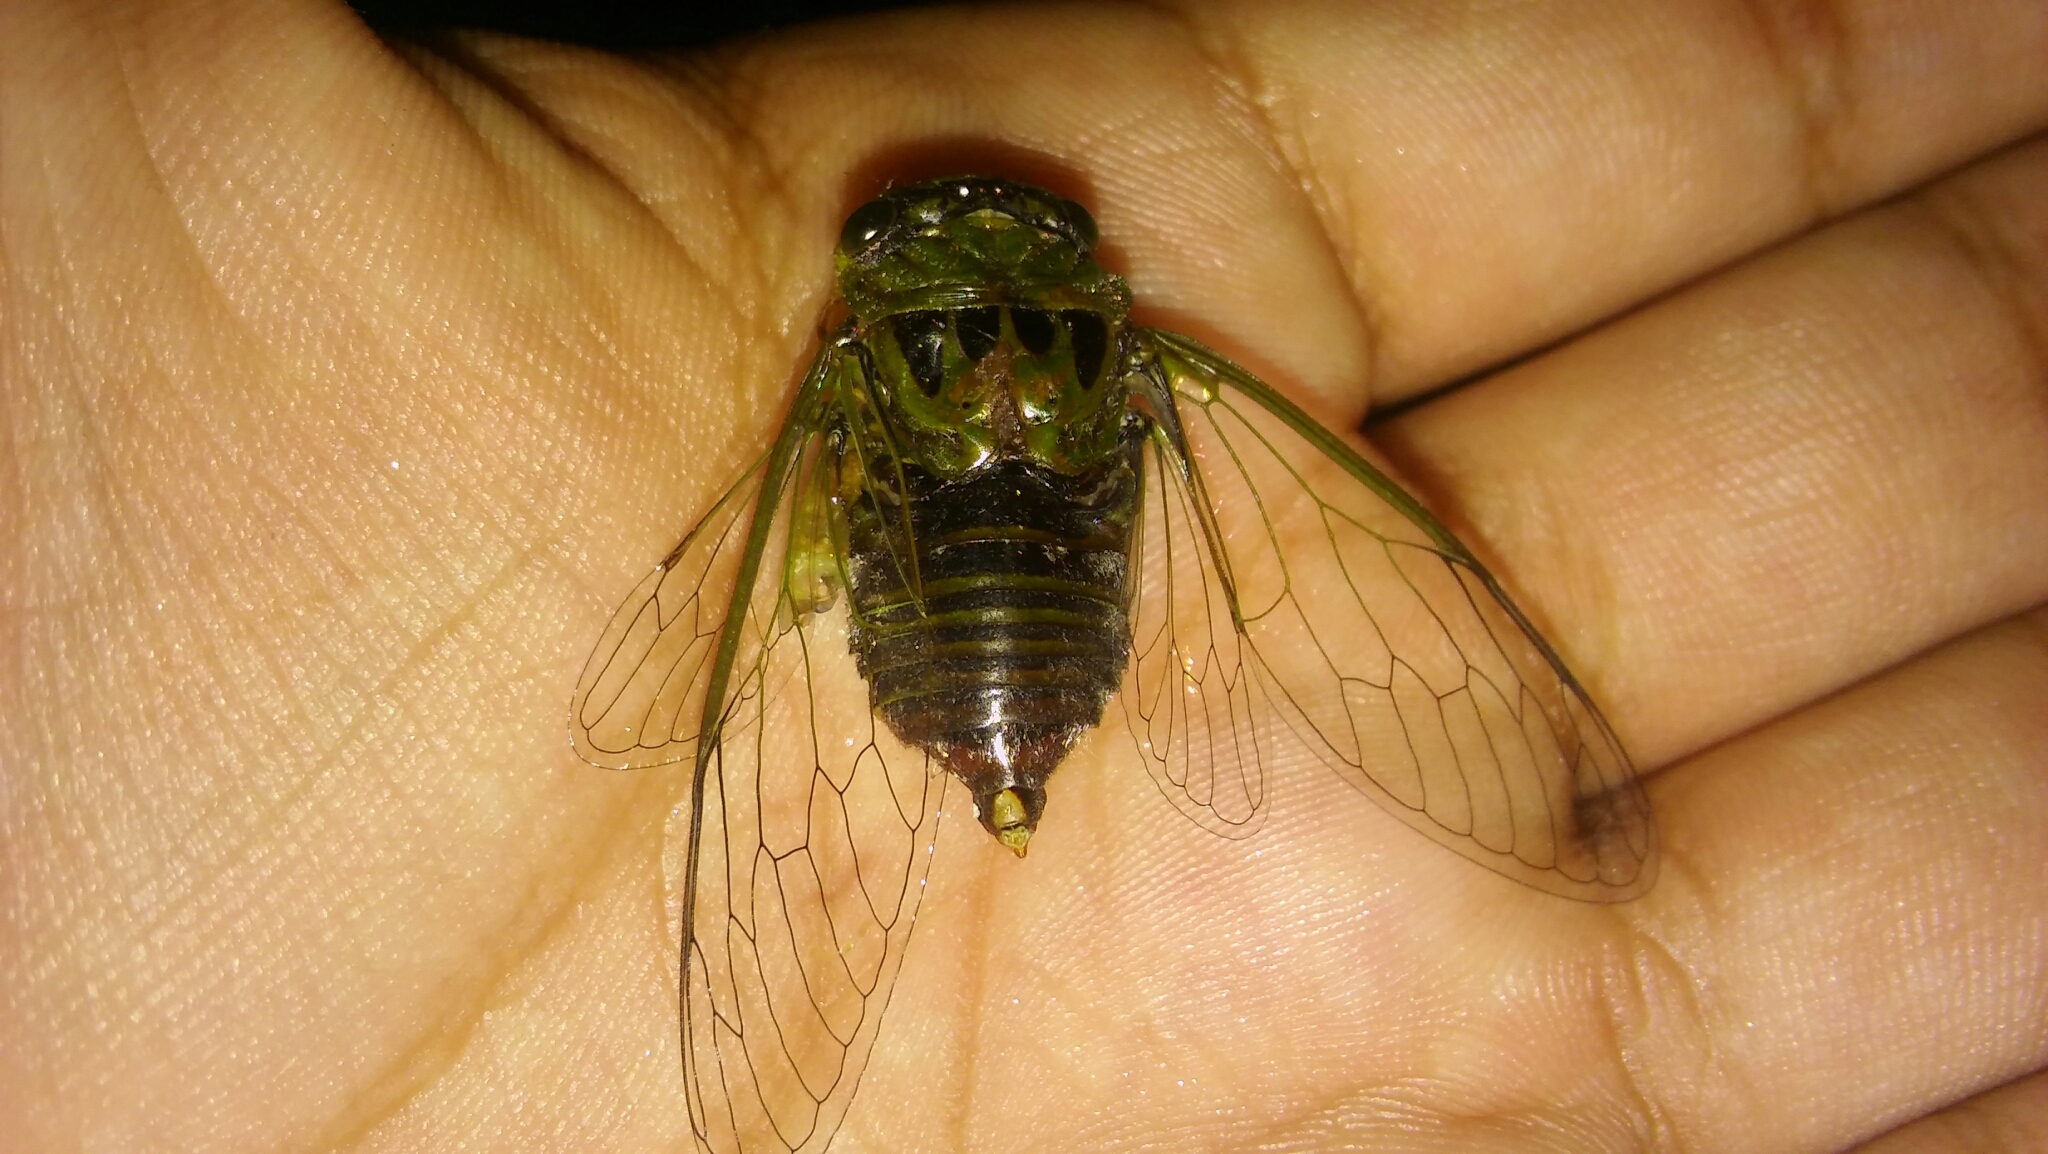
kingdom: Animalia
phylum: Arthropoda
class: Insecta
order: Hemiptera
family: Cicadidae
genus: Acanthoventris
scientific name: Acanthoventris drewseni
